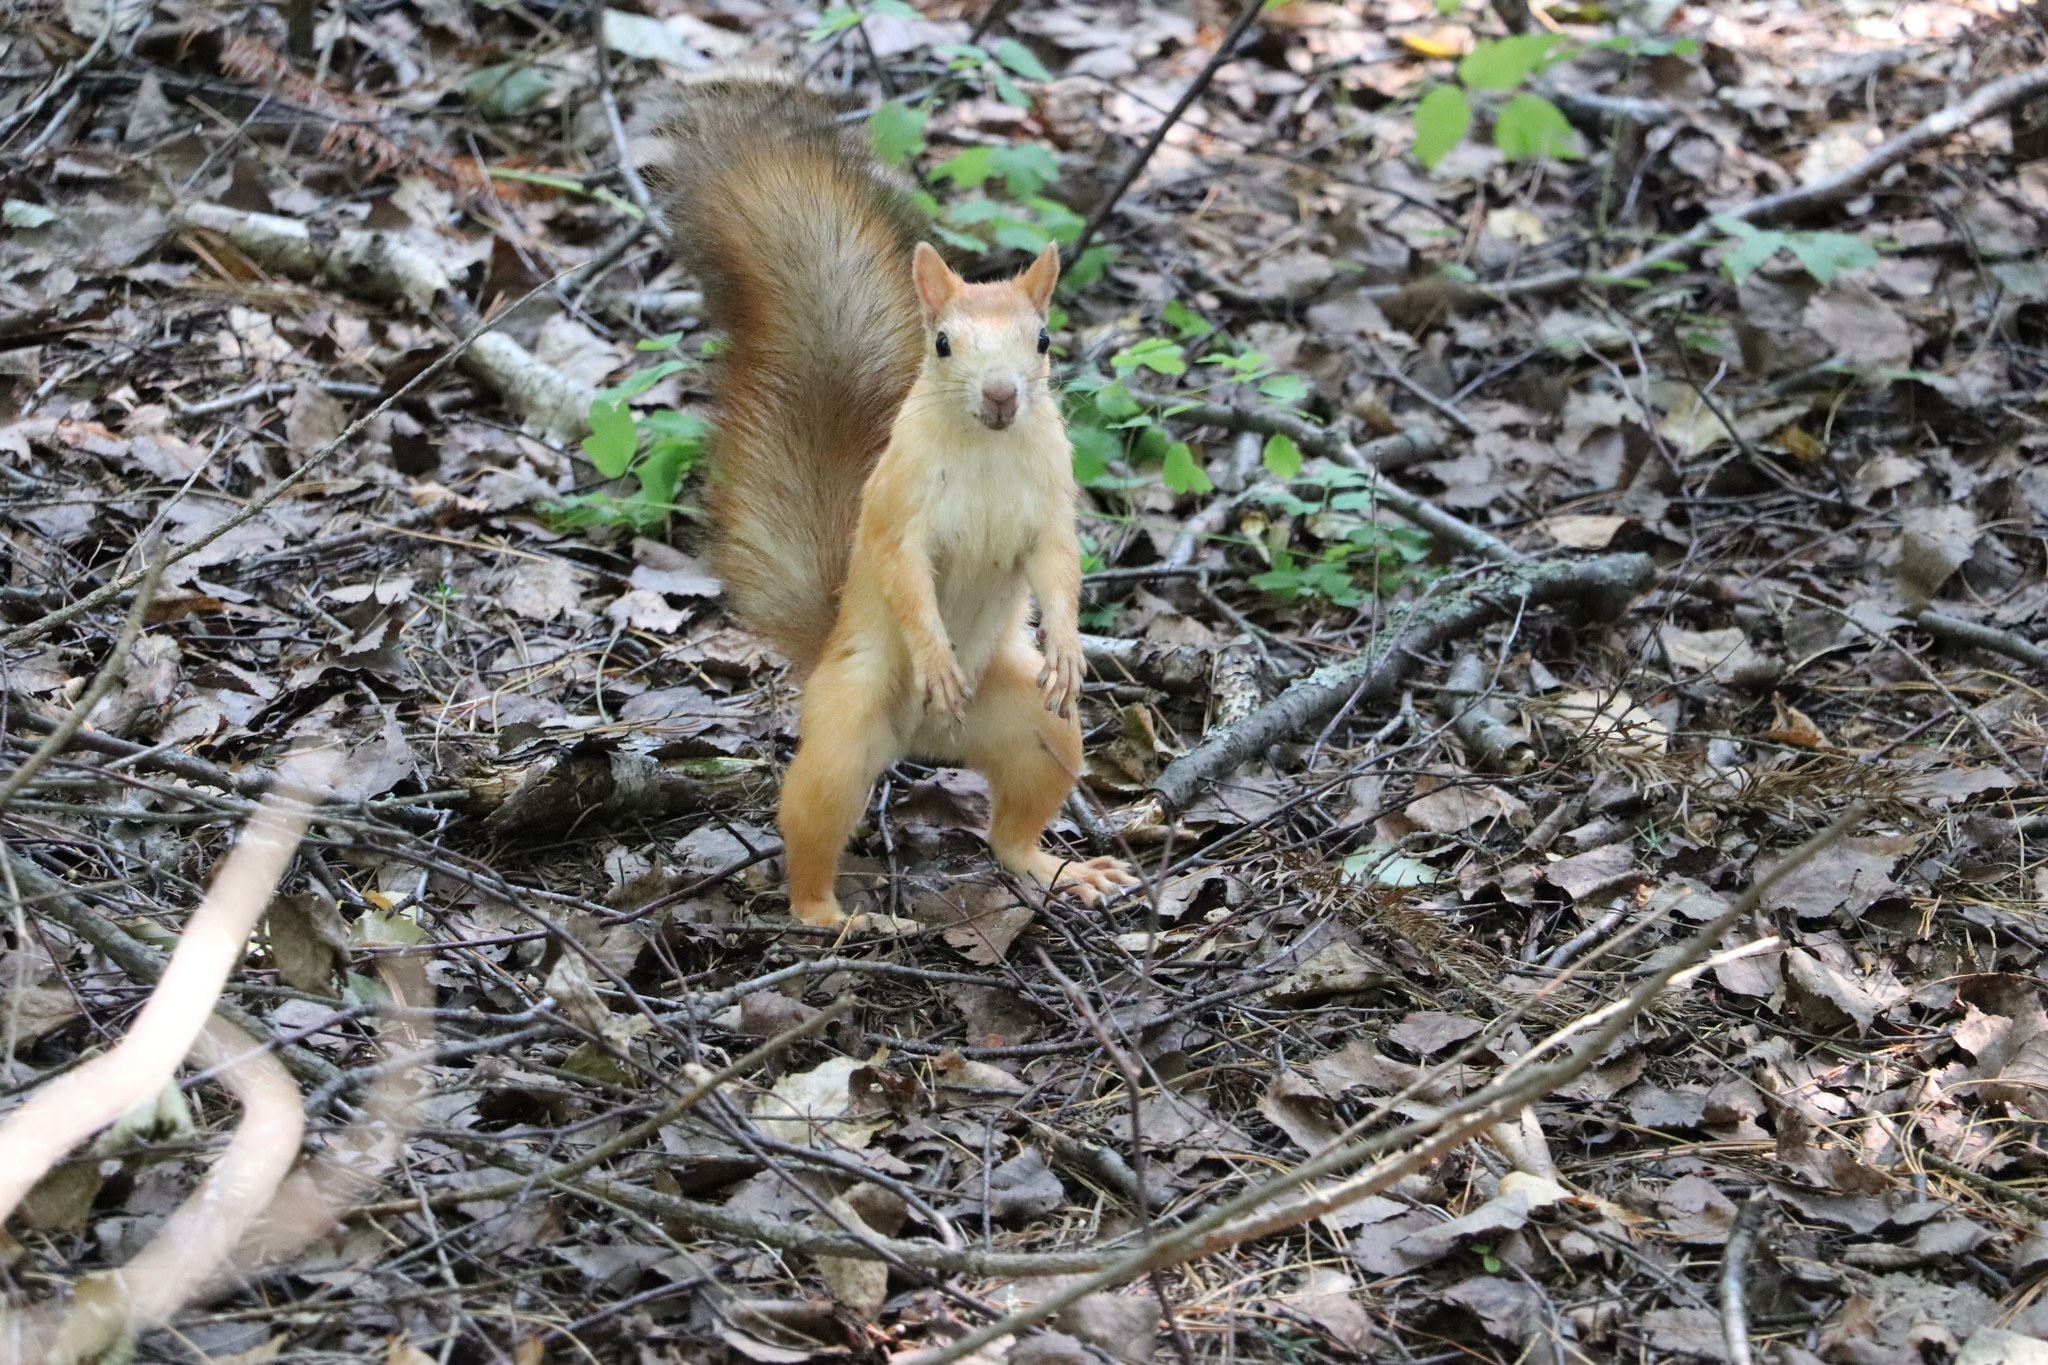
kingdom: Animalia
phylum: Chordata
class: Mammalia
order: Rodentia
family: Sciuridae
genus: Sciurus
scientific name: Sciurus vulgaris
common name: Eurasian red squirrel
